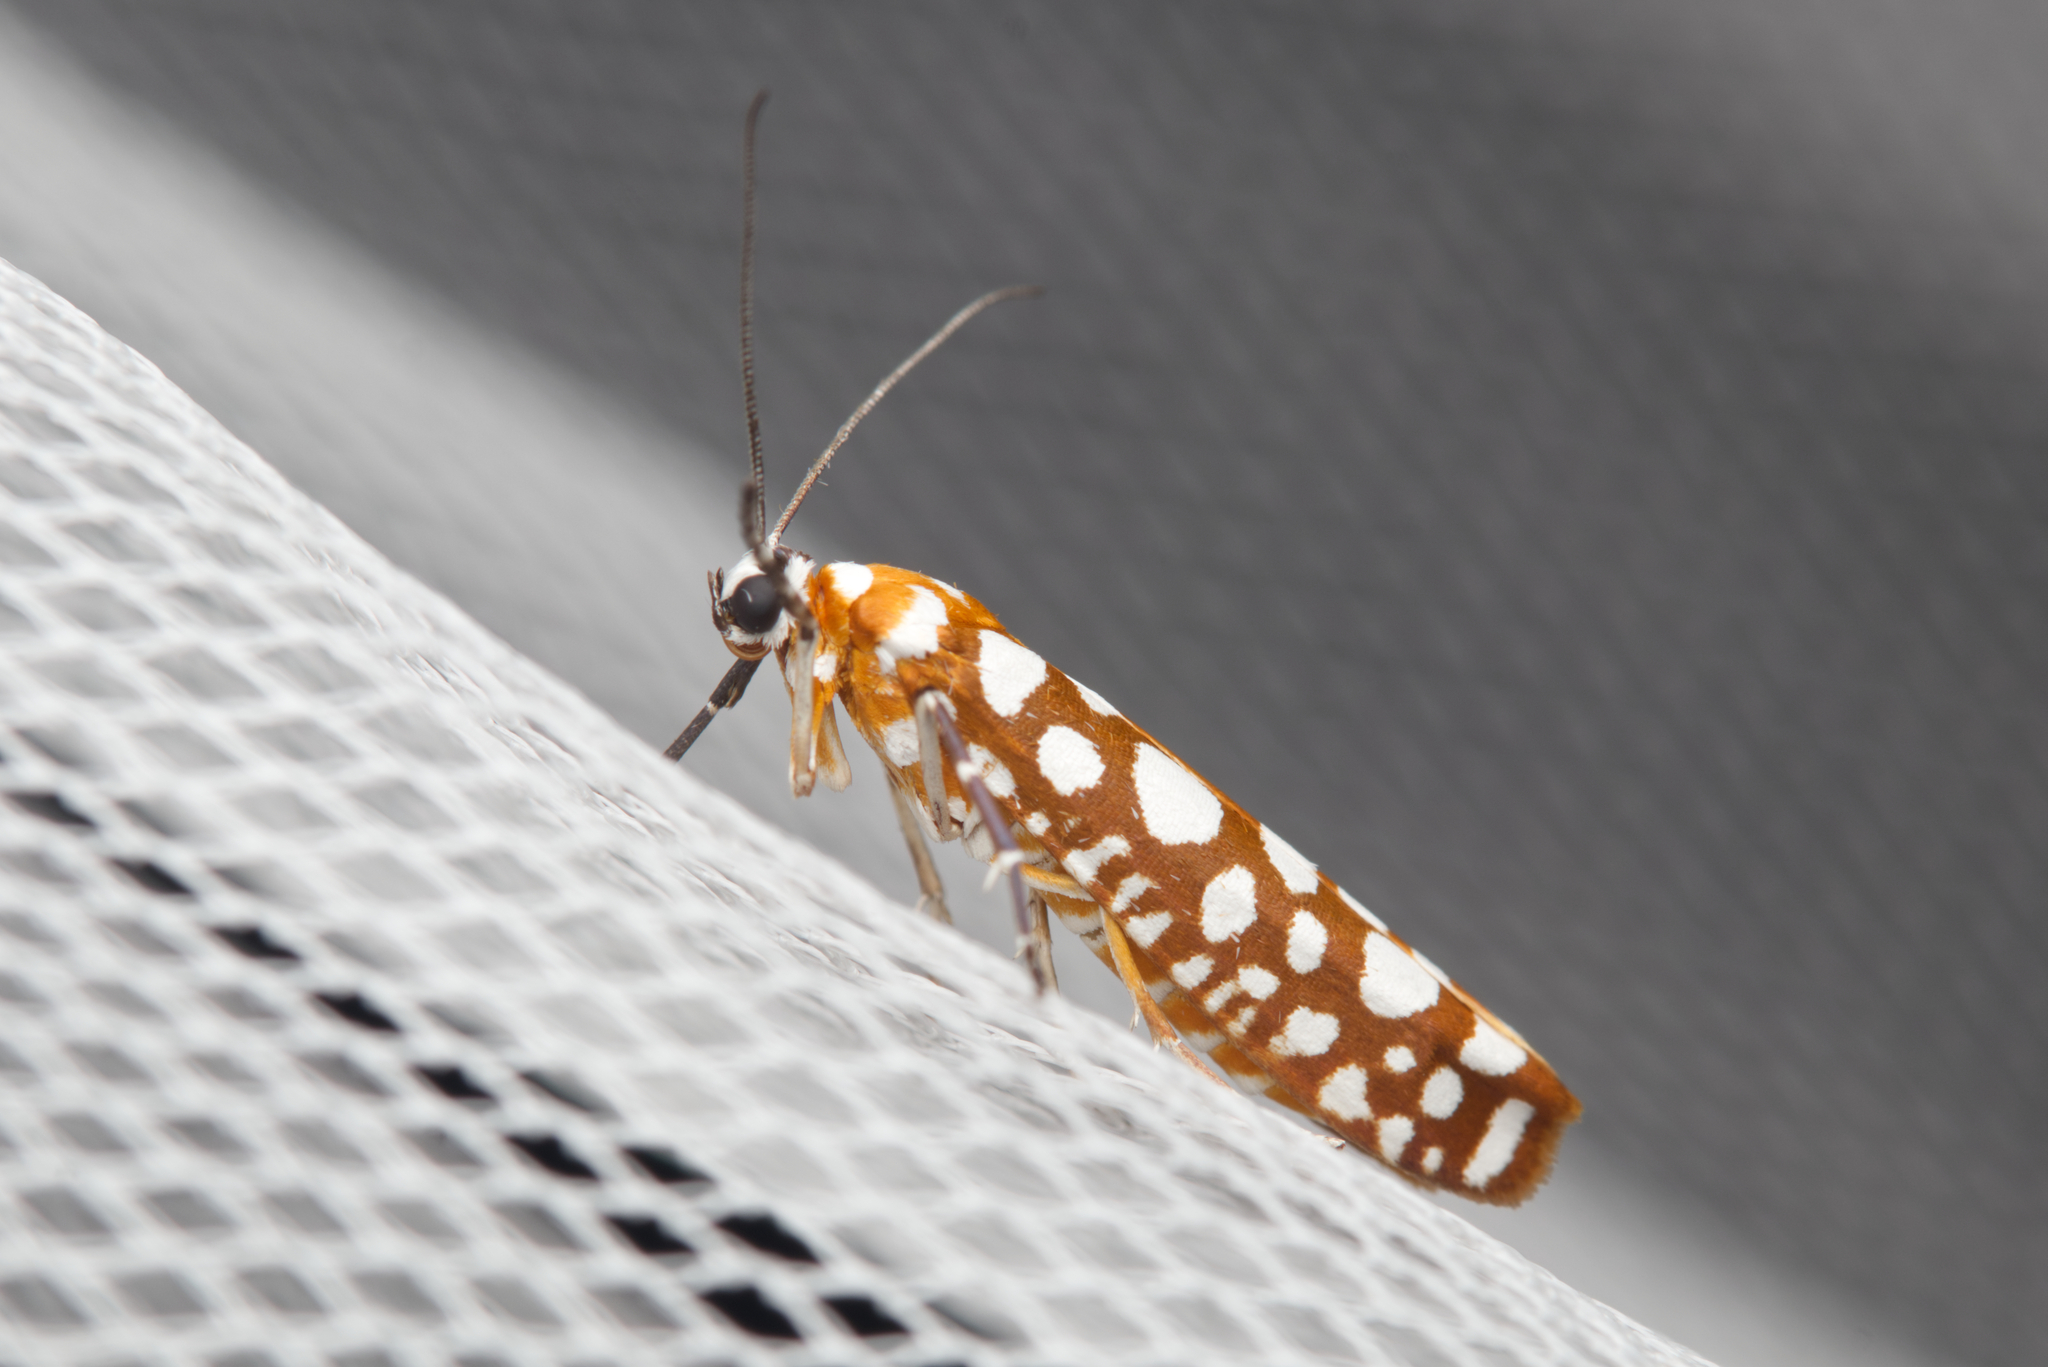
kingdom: Animalia
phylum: Arthropoda
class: Insecta
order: Lepidoptera
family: Attevidae
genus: Atteva
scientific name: Atteva niphocosma
